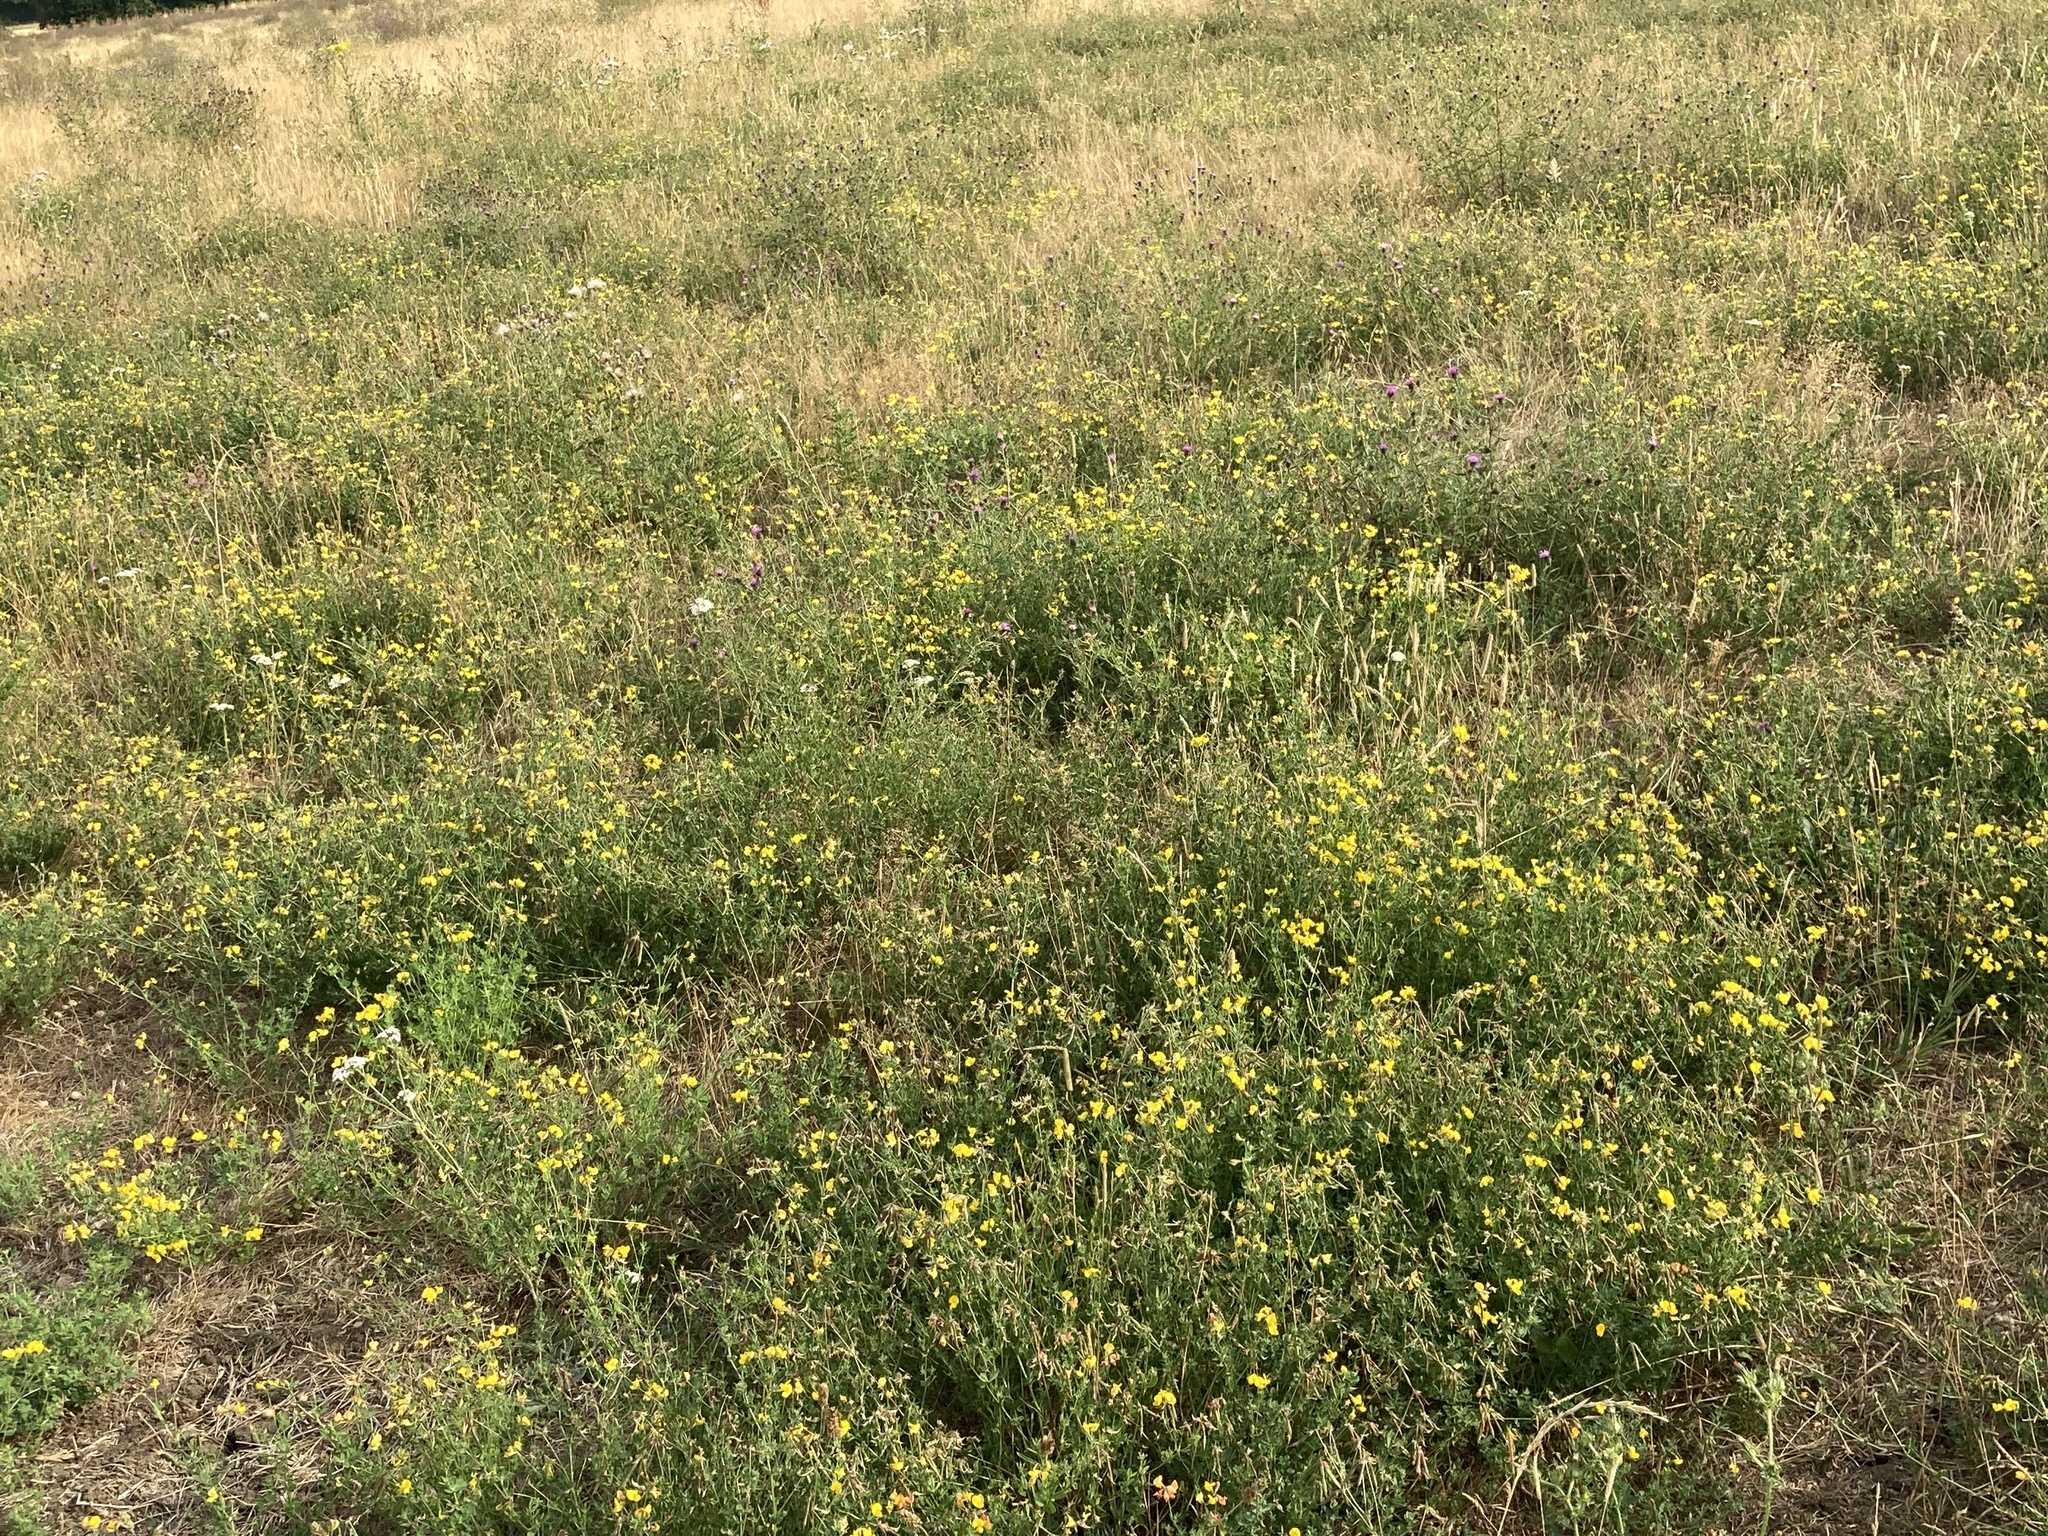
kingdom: Plantae
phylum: Tracheophyta
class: Magnoliopsida
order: Fabales
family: Fabaceae
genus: Lotus
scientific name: Lotus corniculatus
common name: Common bird's-foot-trefoil
